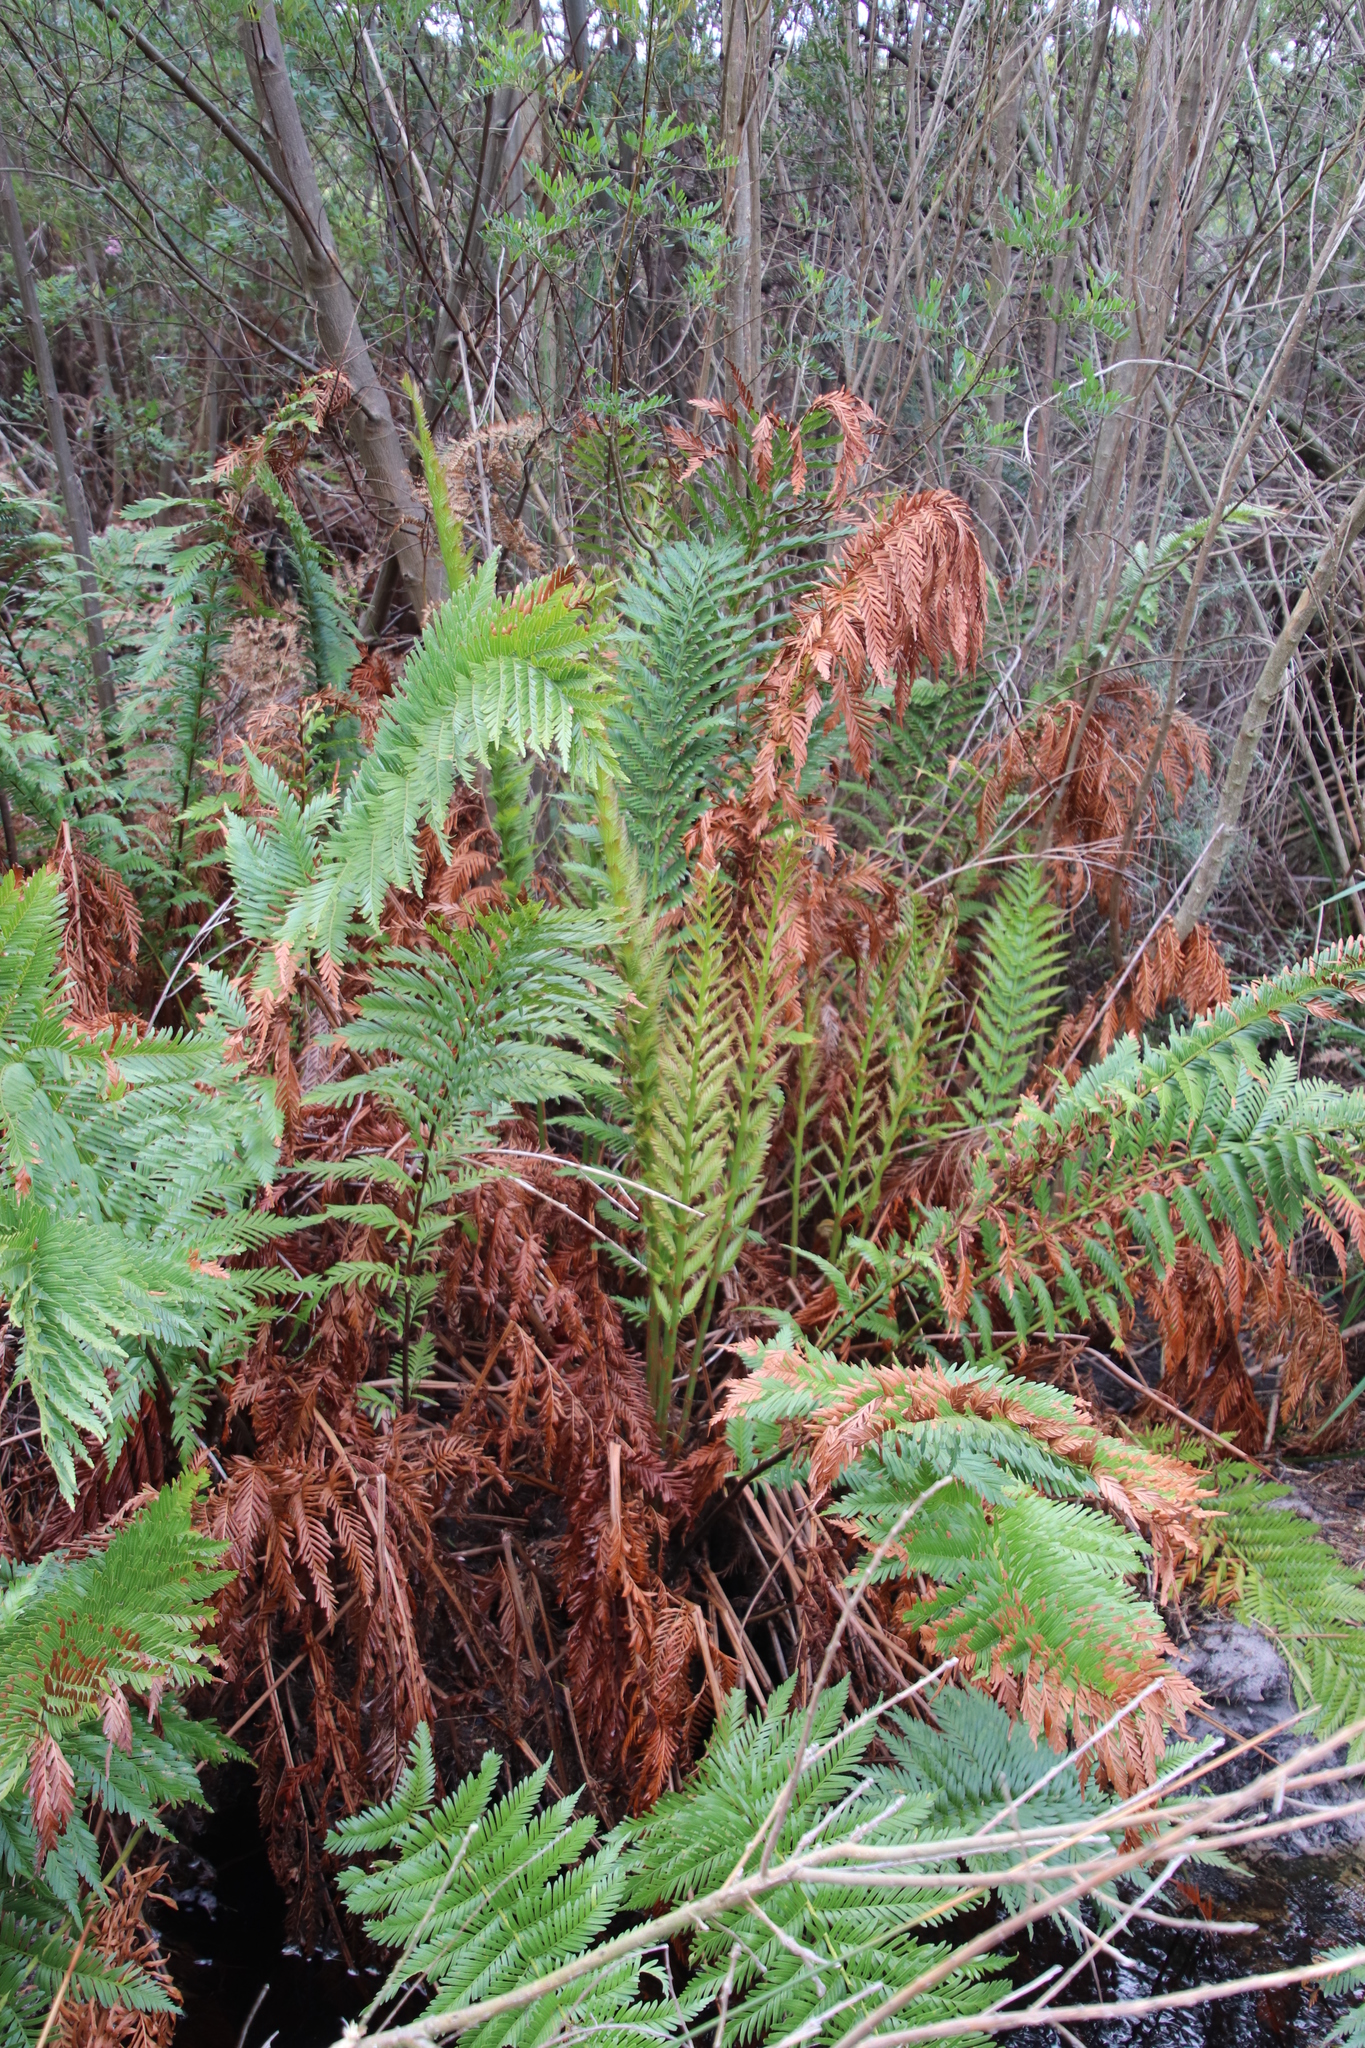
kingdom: Plantae
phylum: Tracheophyta
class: Polypodiopsida
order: Osmundales
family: Osmundaceae
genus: Todea
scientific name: Todea barbara
